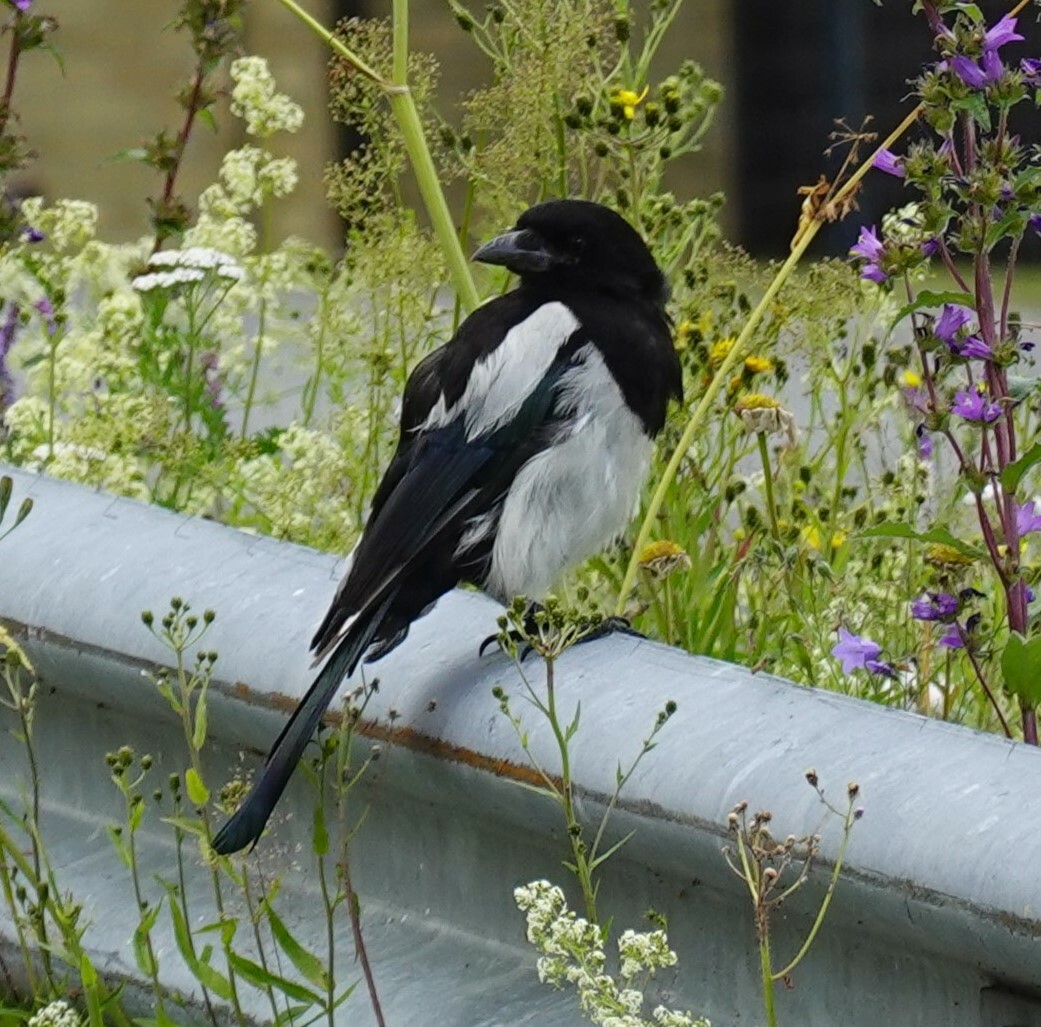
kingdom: Animalia
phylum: Chordata
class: Aves
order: Passeriformes
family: Corvidae
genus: Pica
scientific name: Pica pica
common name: Eurasian magpie
